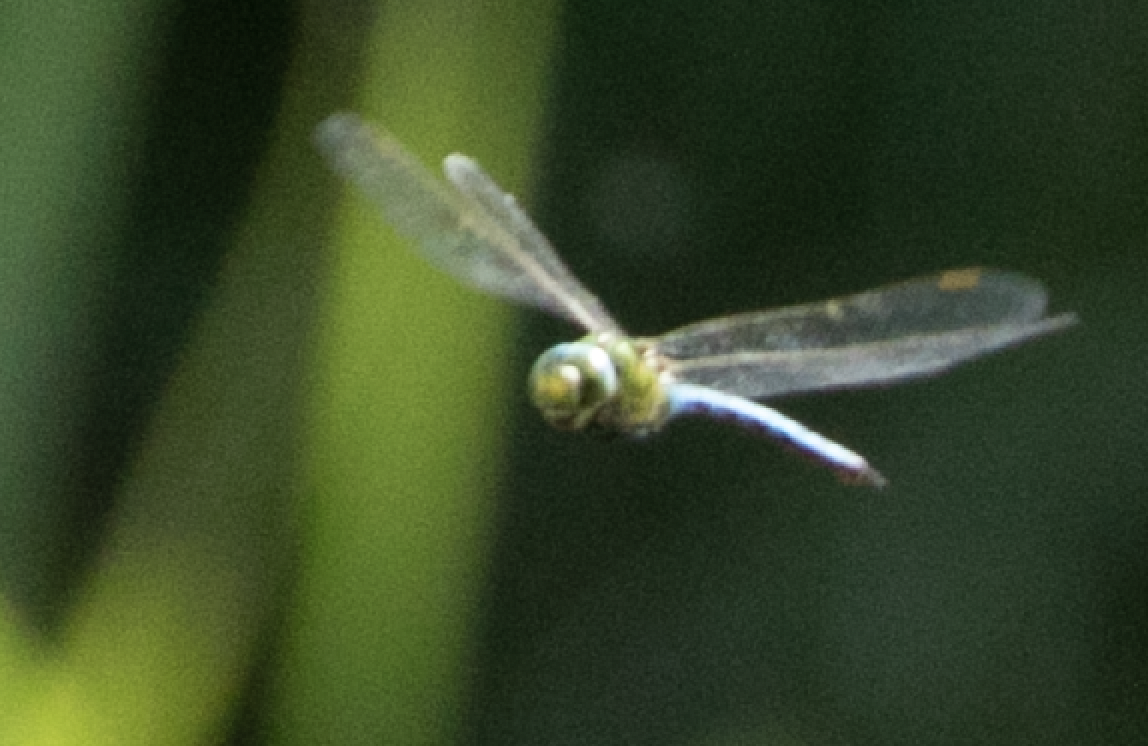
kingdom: Animalia
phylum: Arthropoda
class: Insecta
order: Odonata
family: Aeshnidae
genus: Anax
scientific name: Anax imperator
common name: Emperor dragonfly
